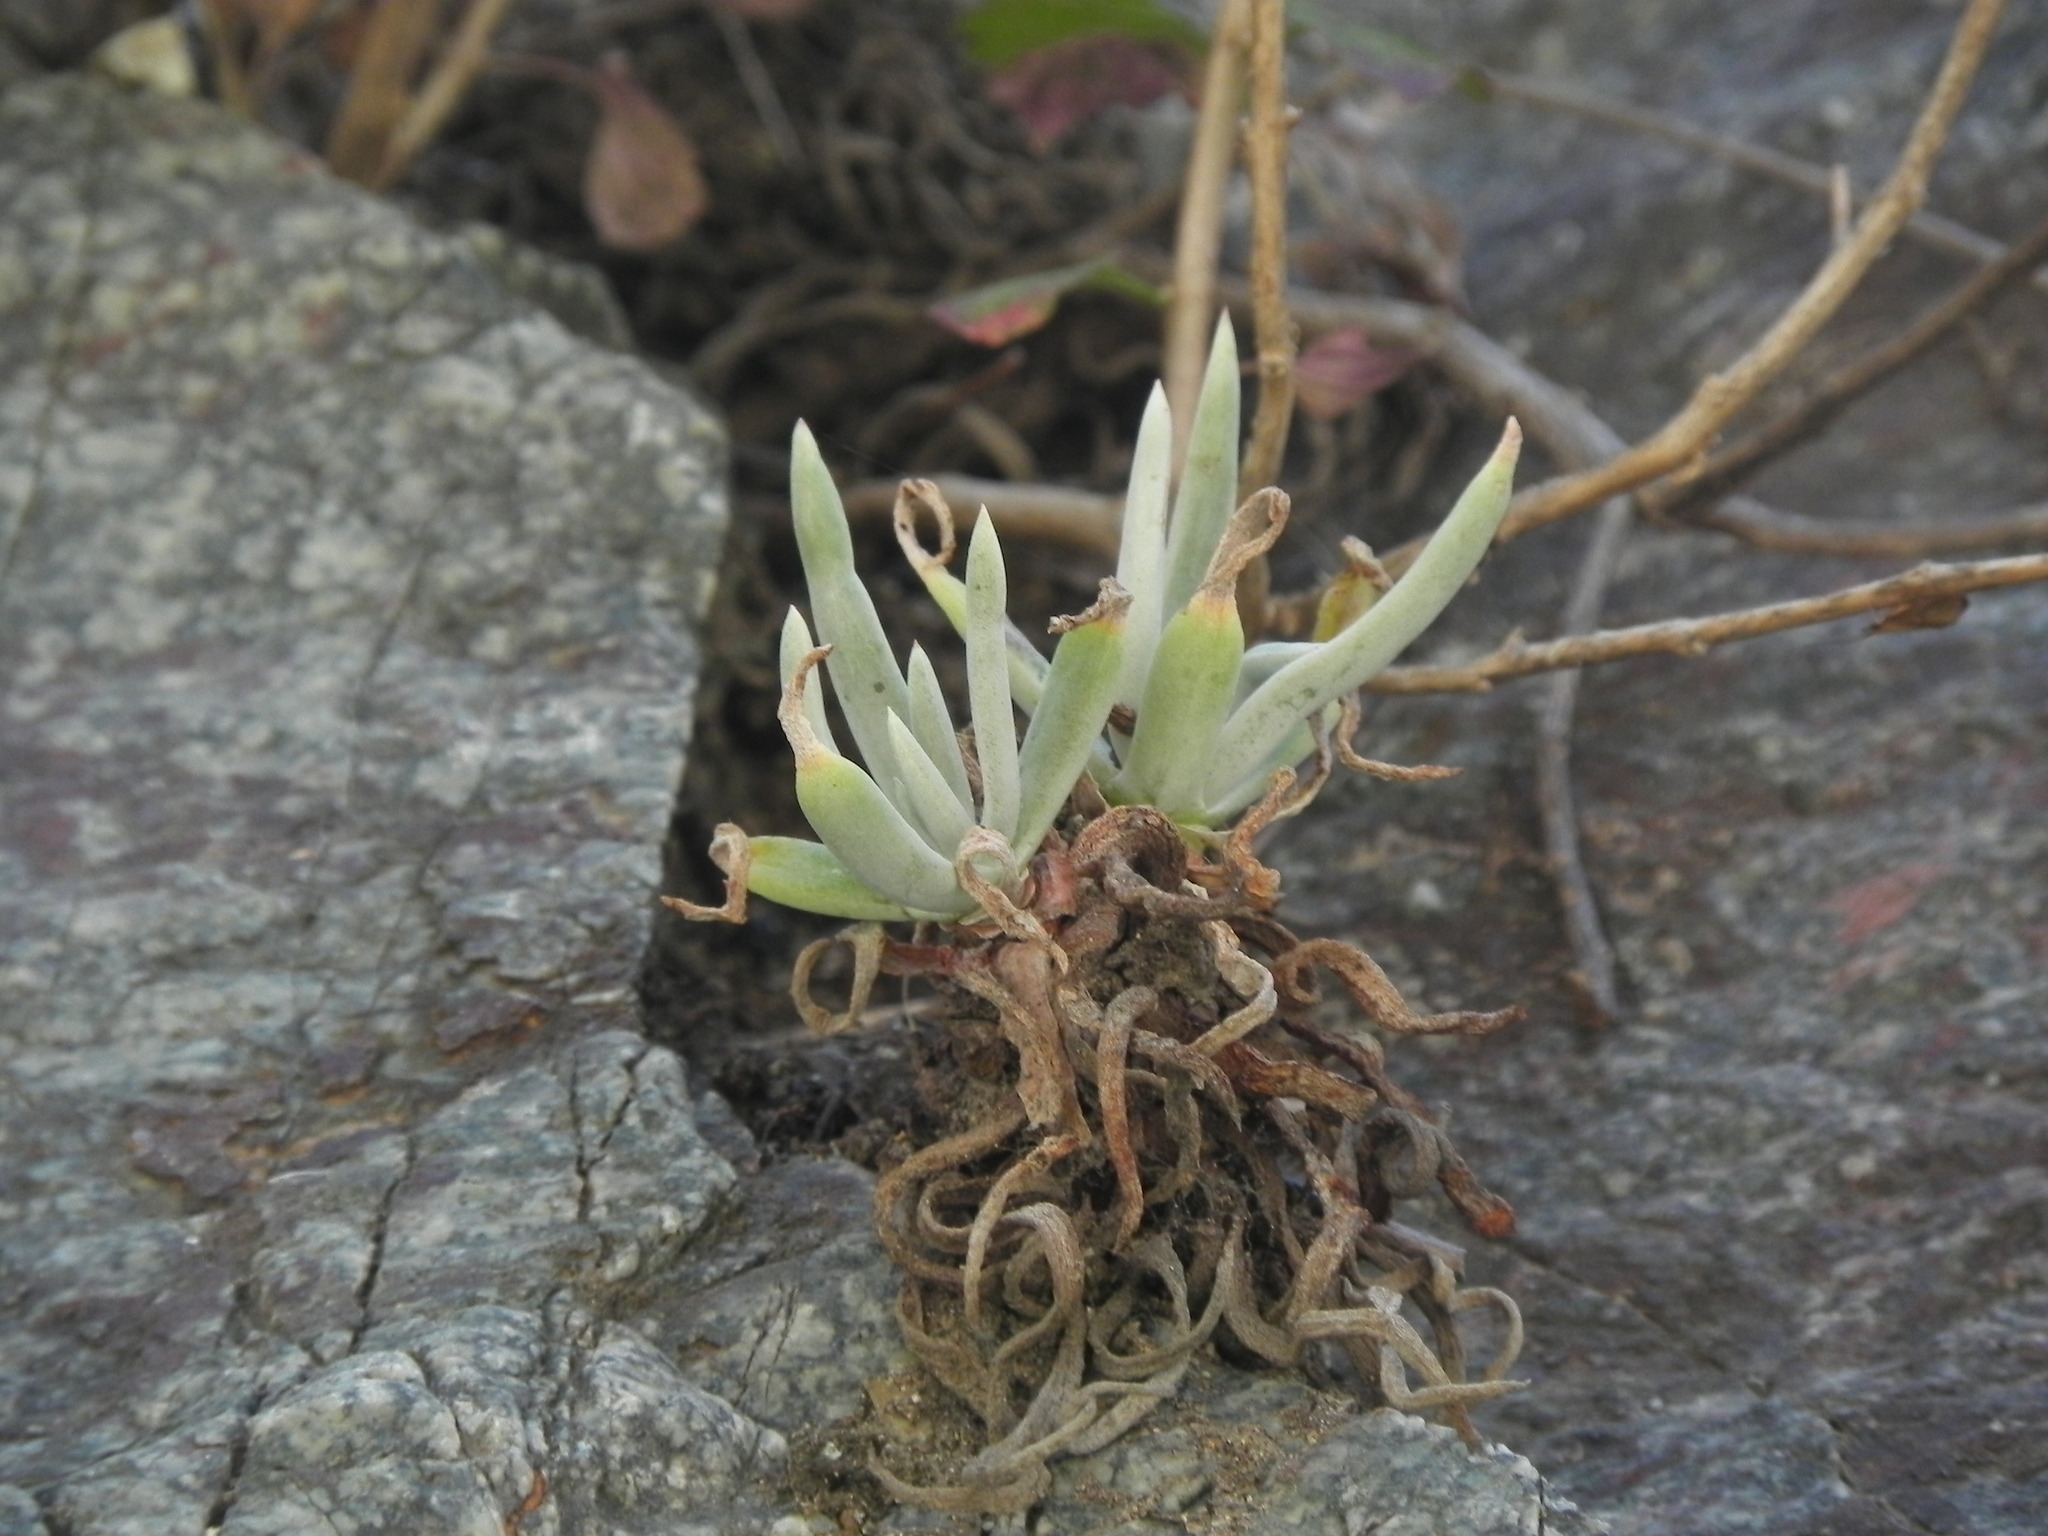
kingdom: Plantae
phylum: Tracheophyta
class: Magnoliopsida
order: Saxifragales
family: Crassulaceae
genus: Dudleya
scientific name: Dudleya densiflora
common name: San gabriel mountains dudleya
